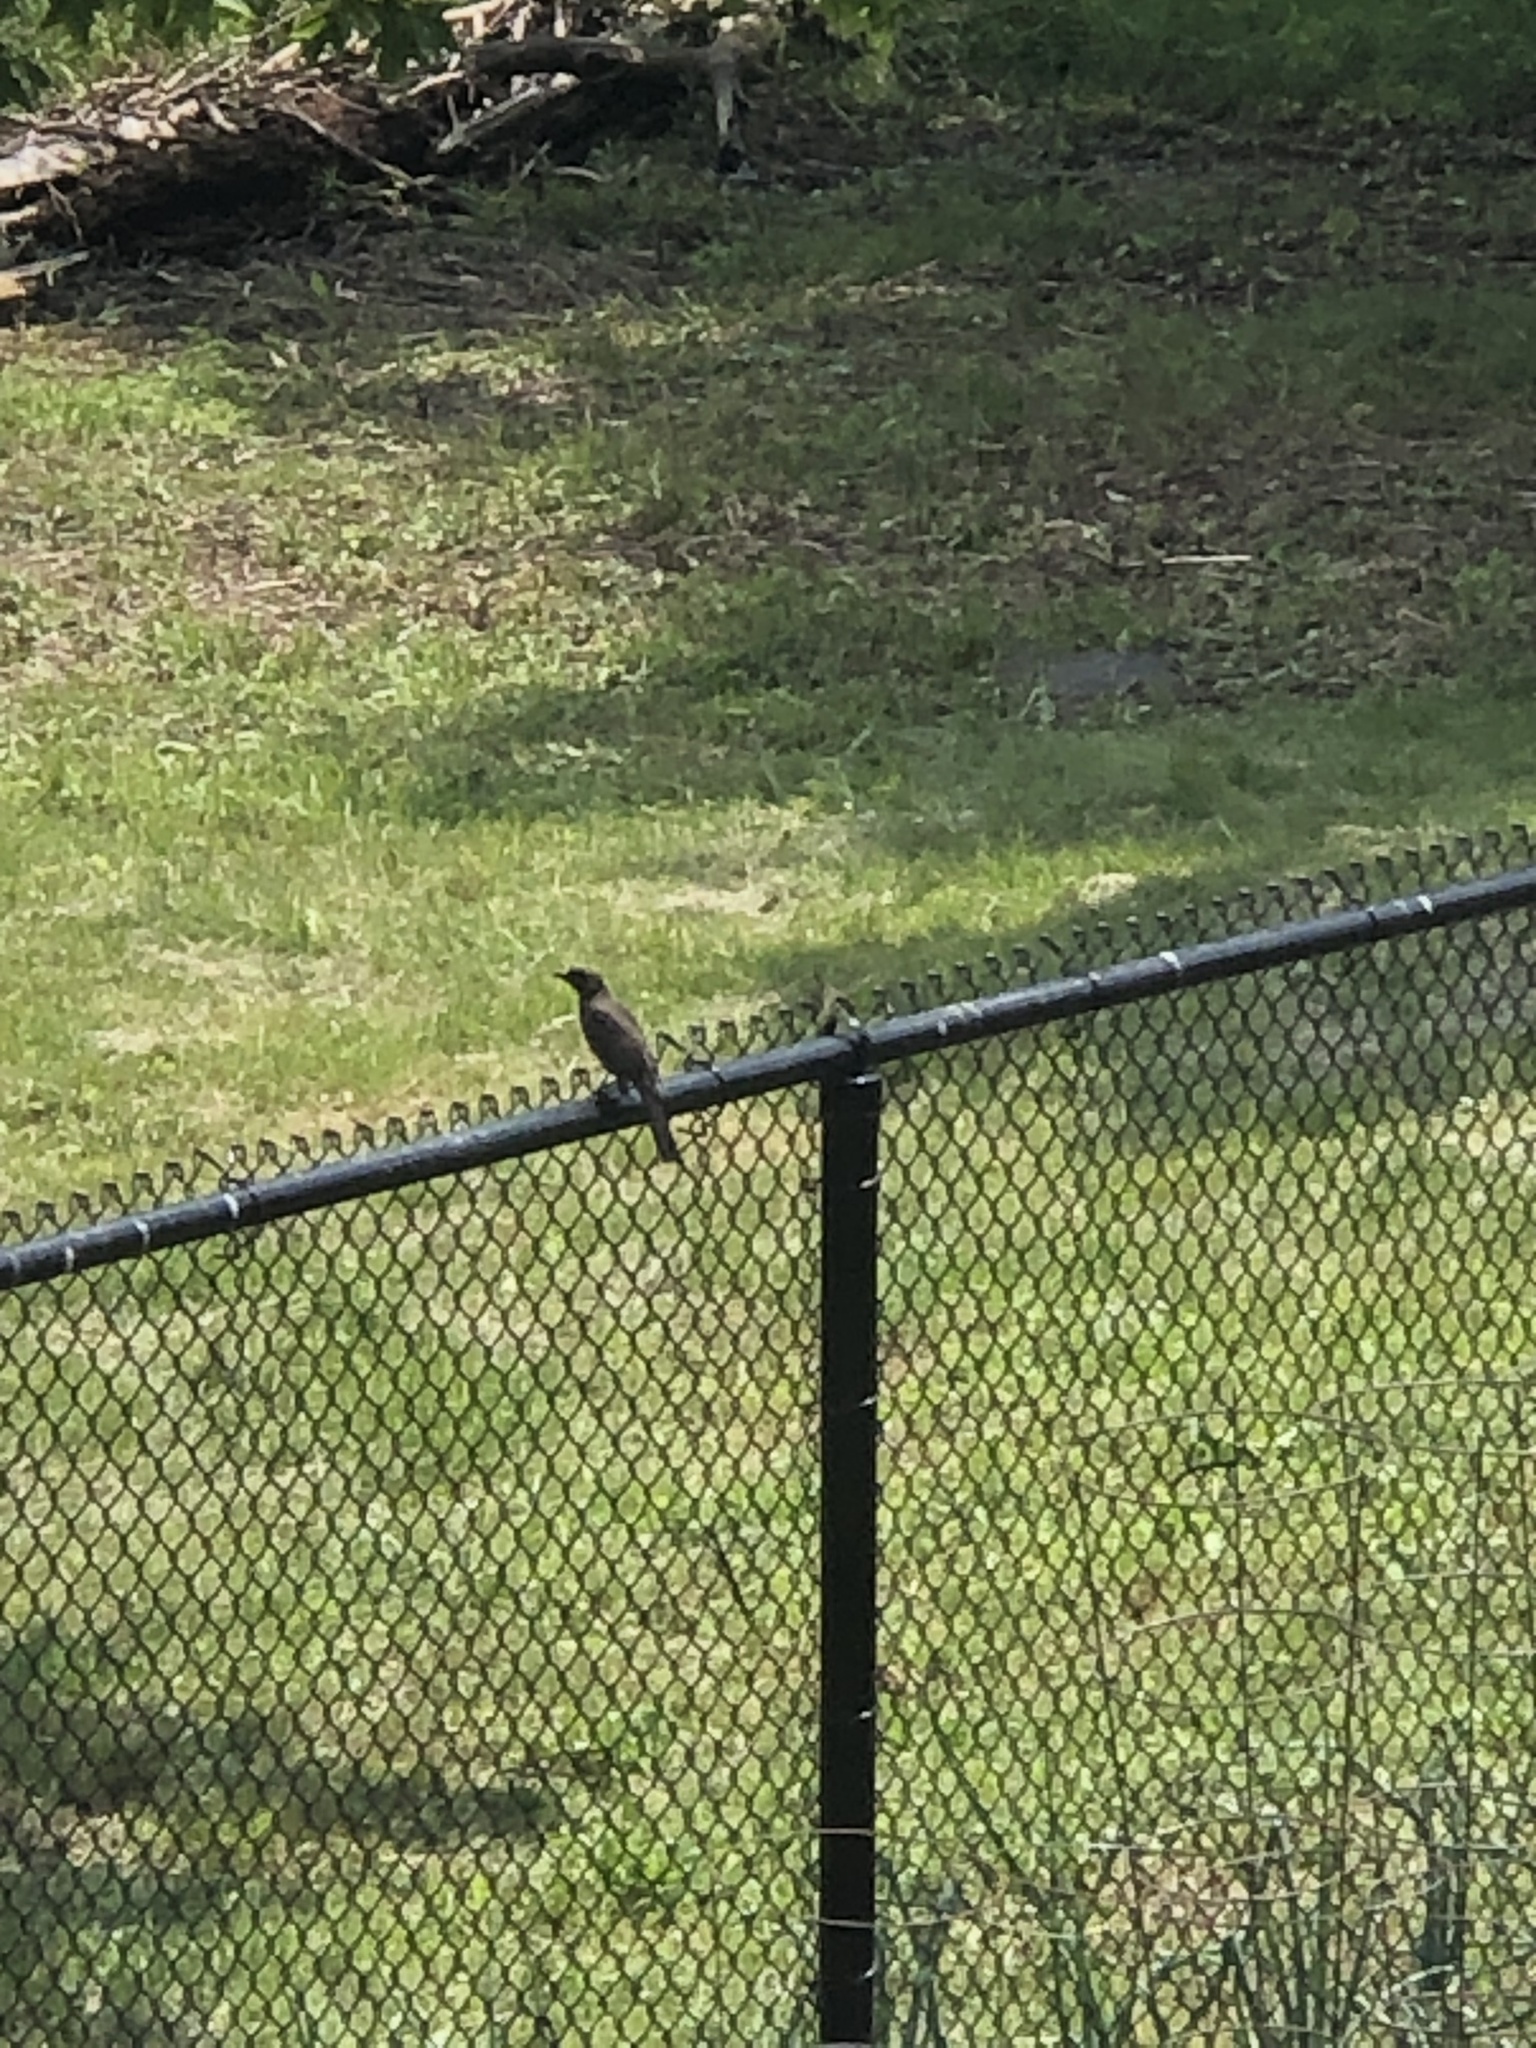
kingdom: Animalia
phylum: Chordata
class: Aves
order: Passeriformes
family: Turdidae
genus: Turdus
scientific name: Turdus migratorius
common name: American robin
